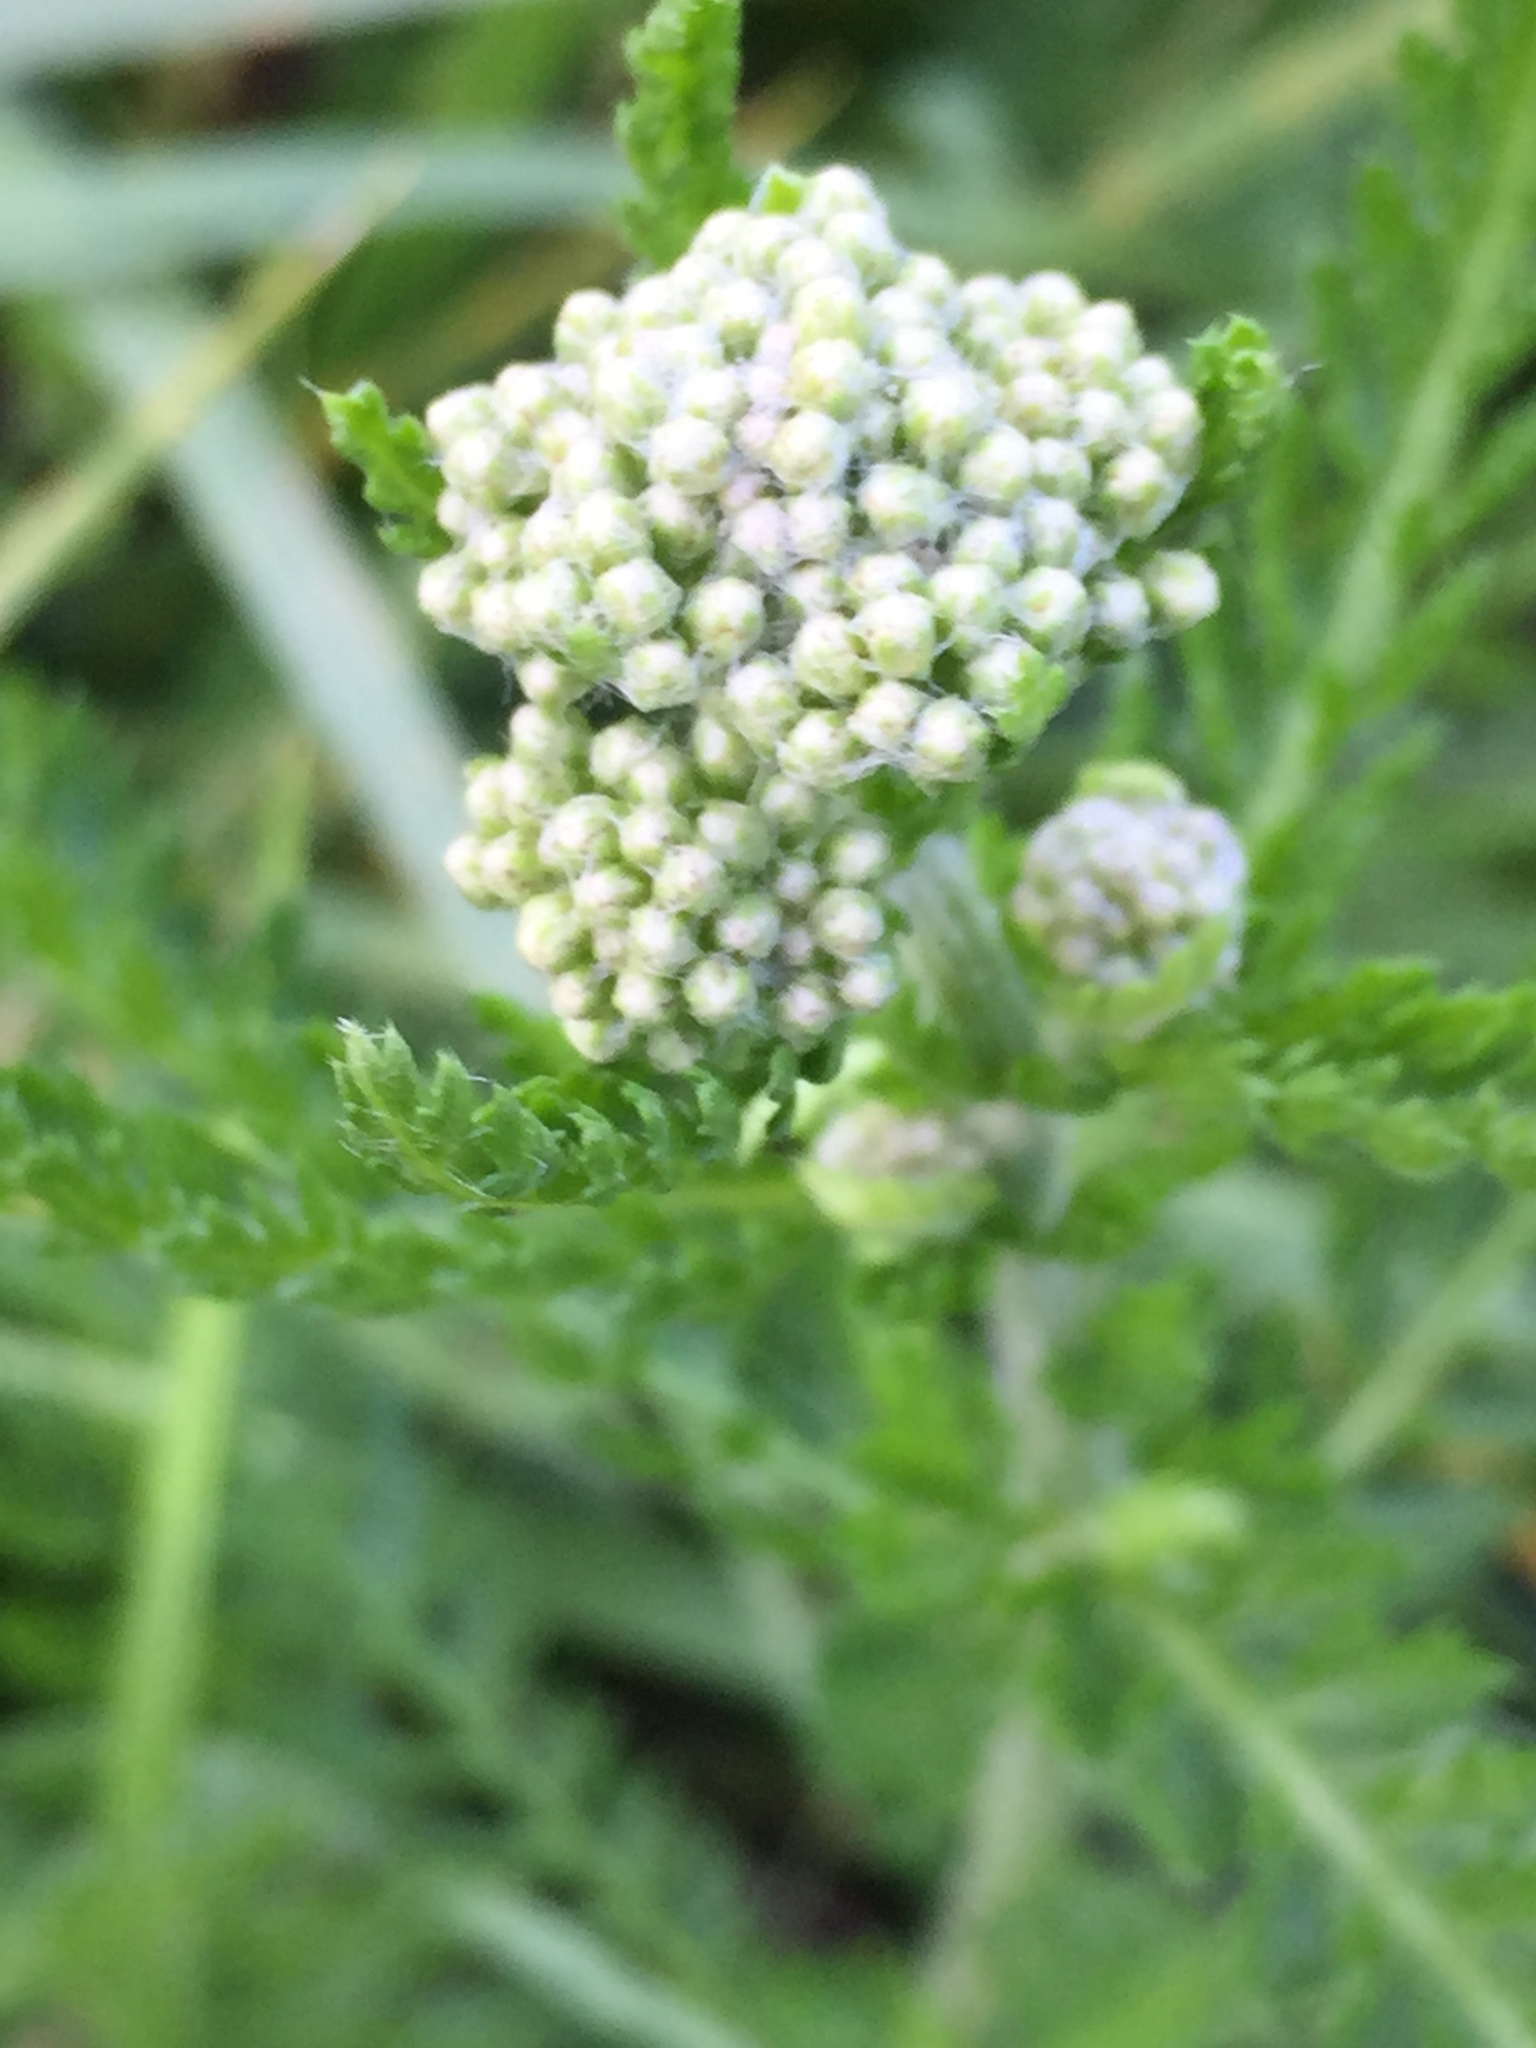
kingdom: Plantae
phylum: Tracheophyta
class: Magnoliopsida
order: Asterales
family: Asteraceae
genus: Achillea
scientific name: Achillea setacea
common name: Bristly yarrow
